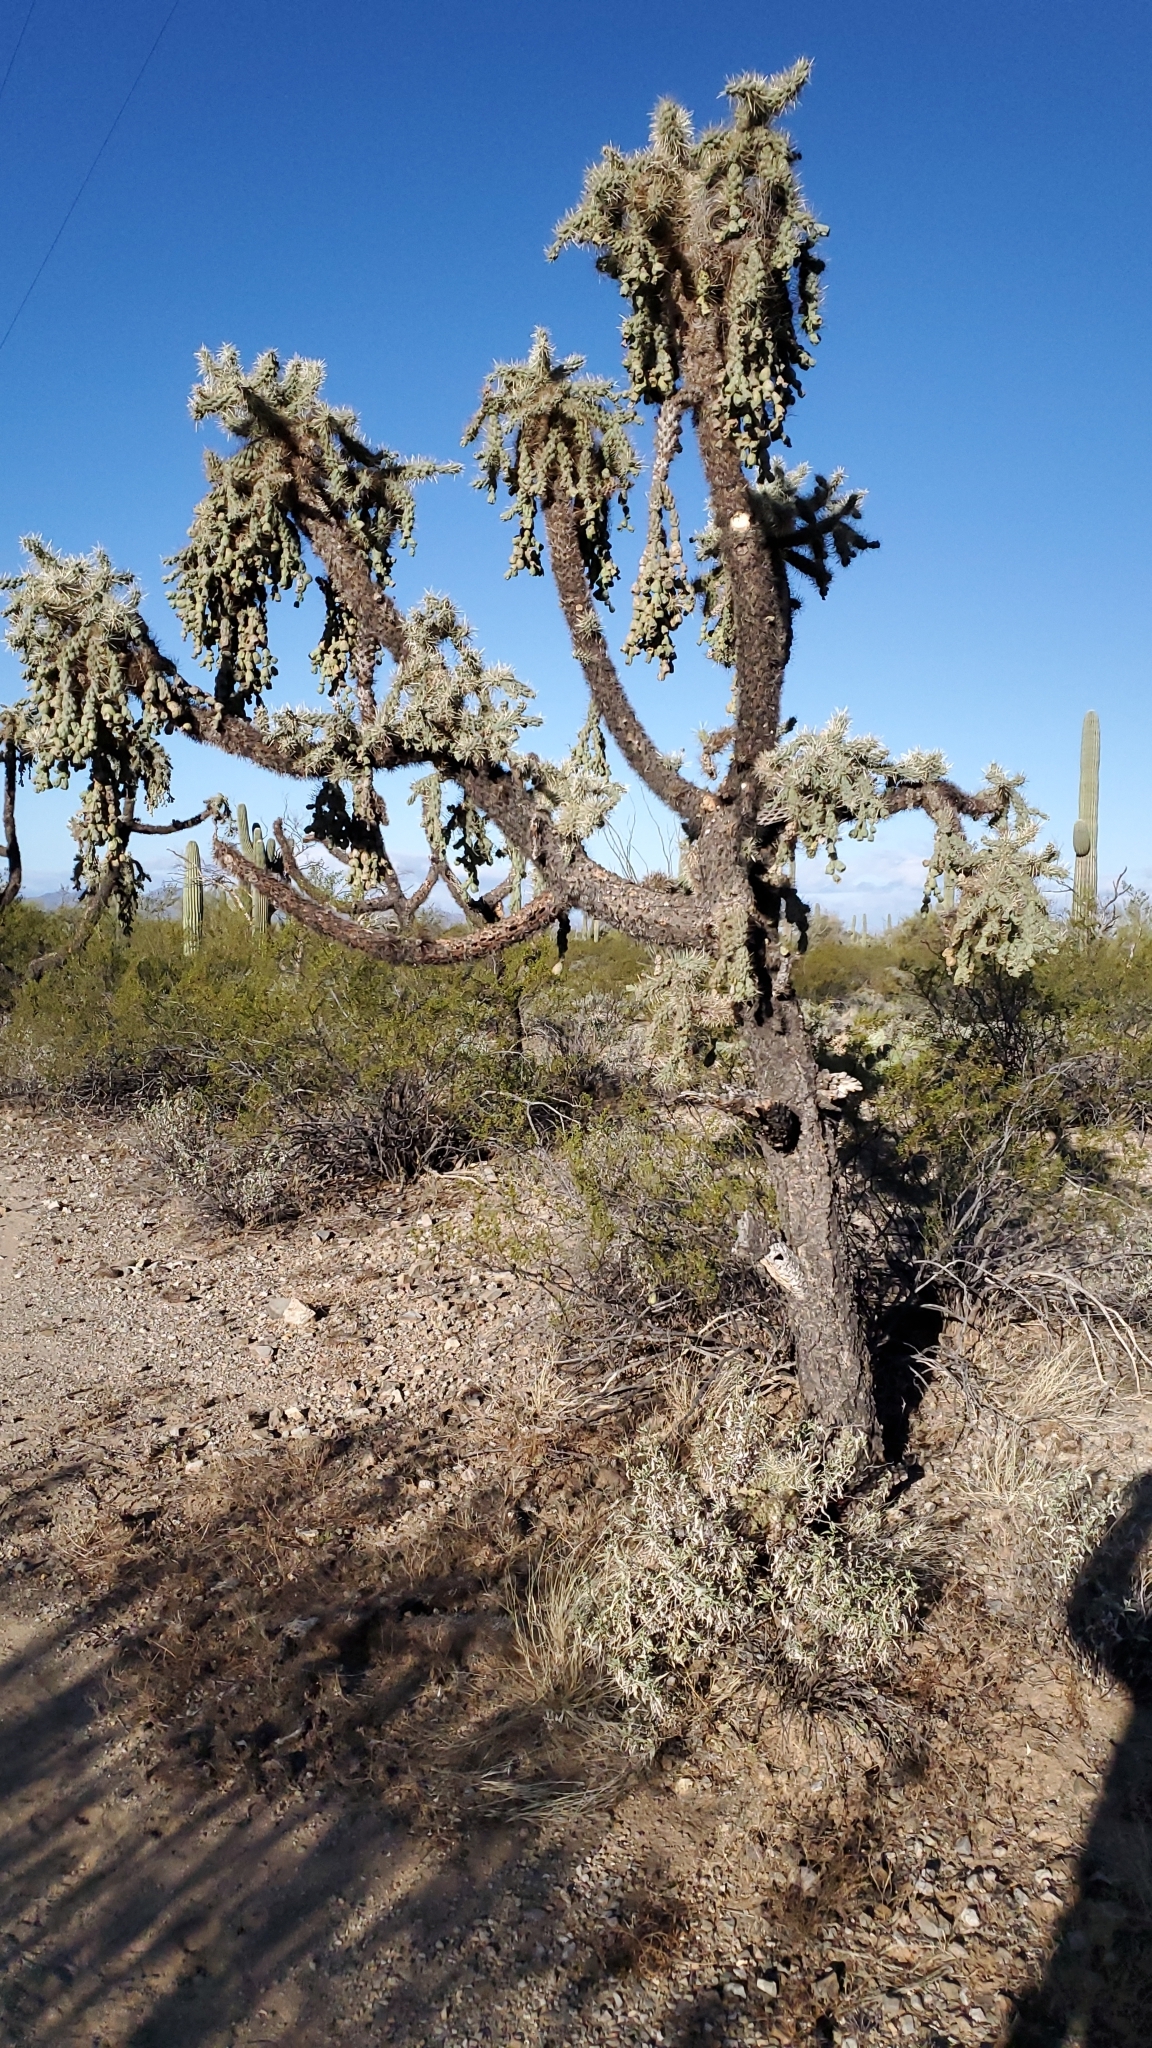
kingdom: Plantae
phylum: Tracheophyta
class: Magnoliopsida
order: Caryophyllales
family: Cactaceae
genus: Cylindropuntia
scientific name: Cylindropuntia fulgida
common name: Jumping cholla
